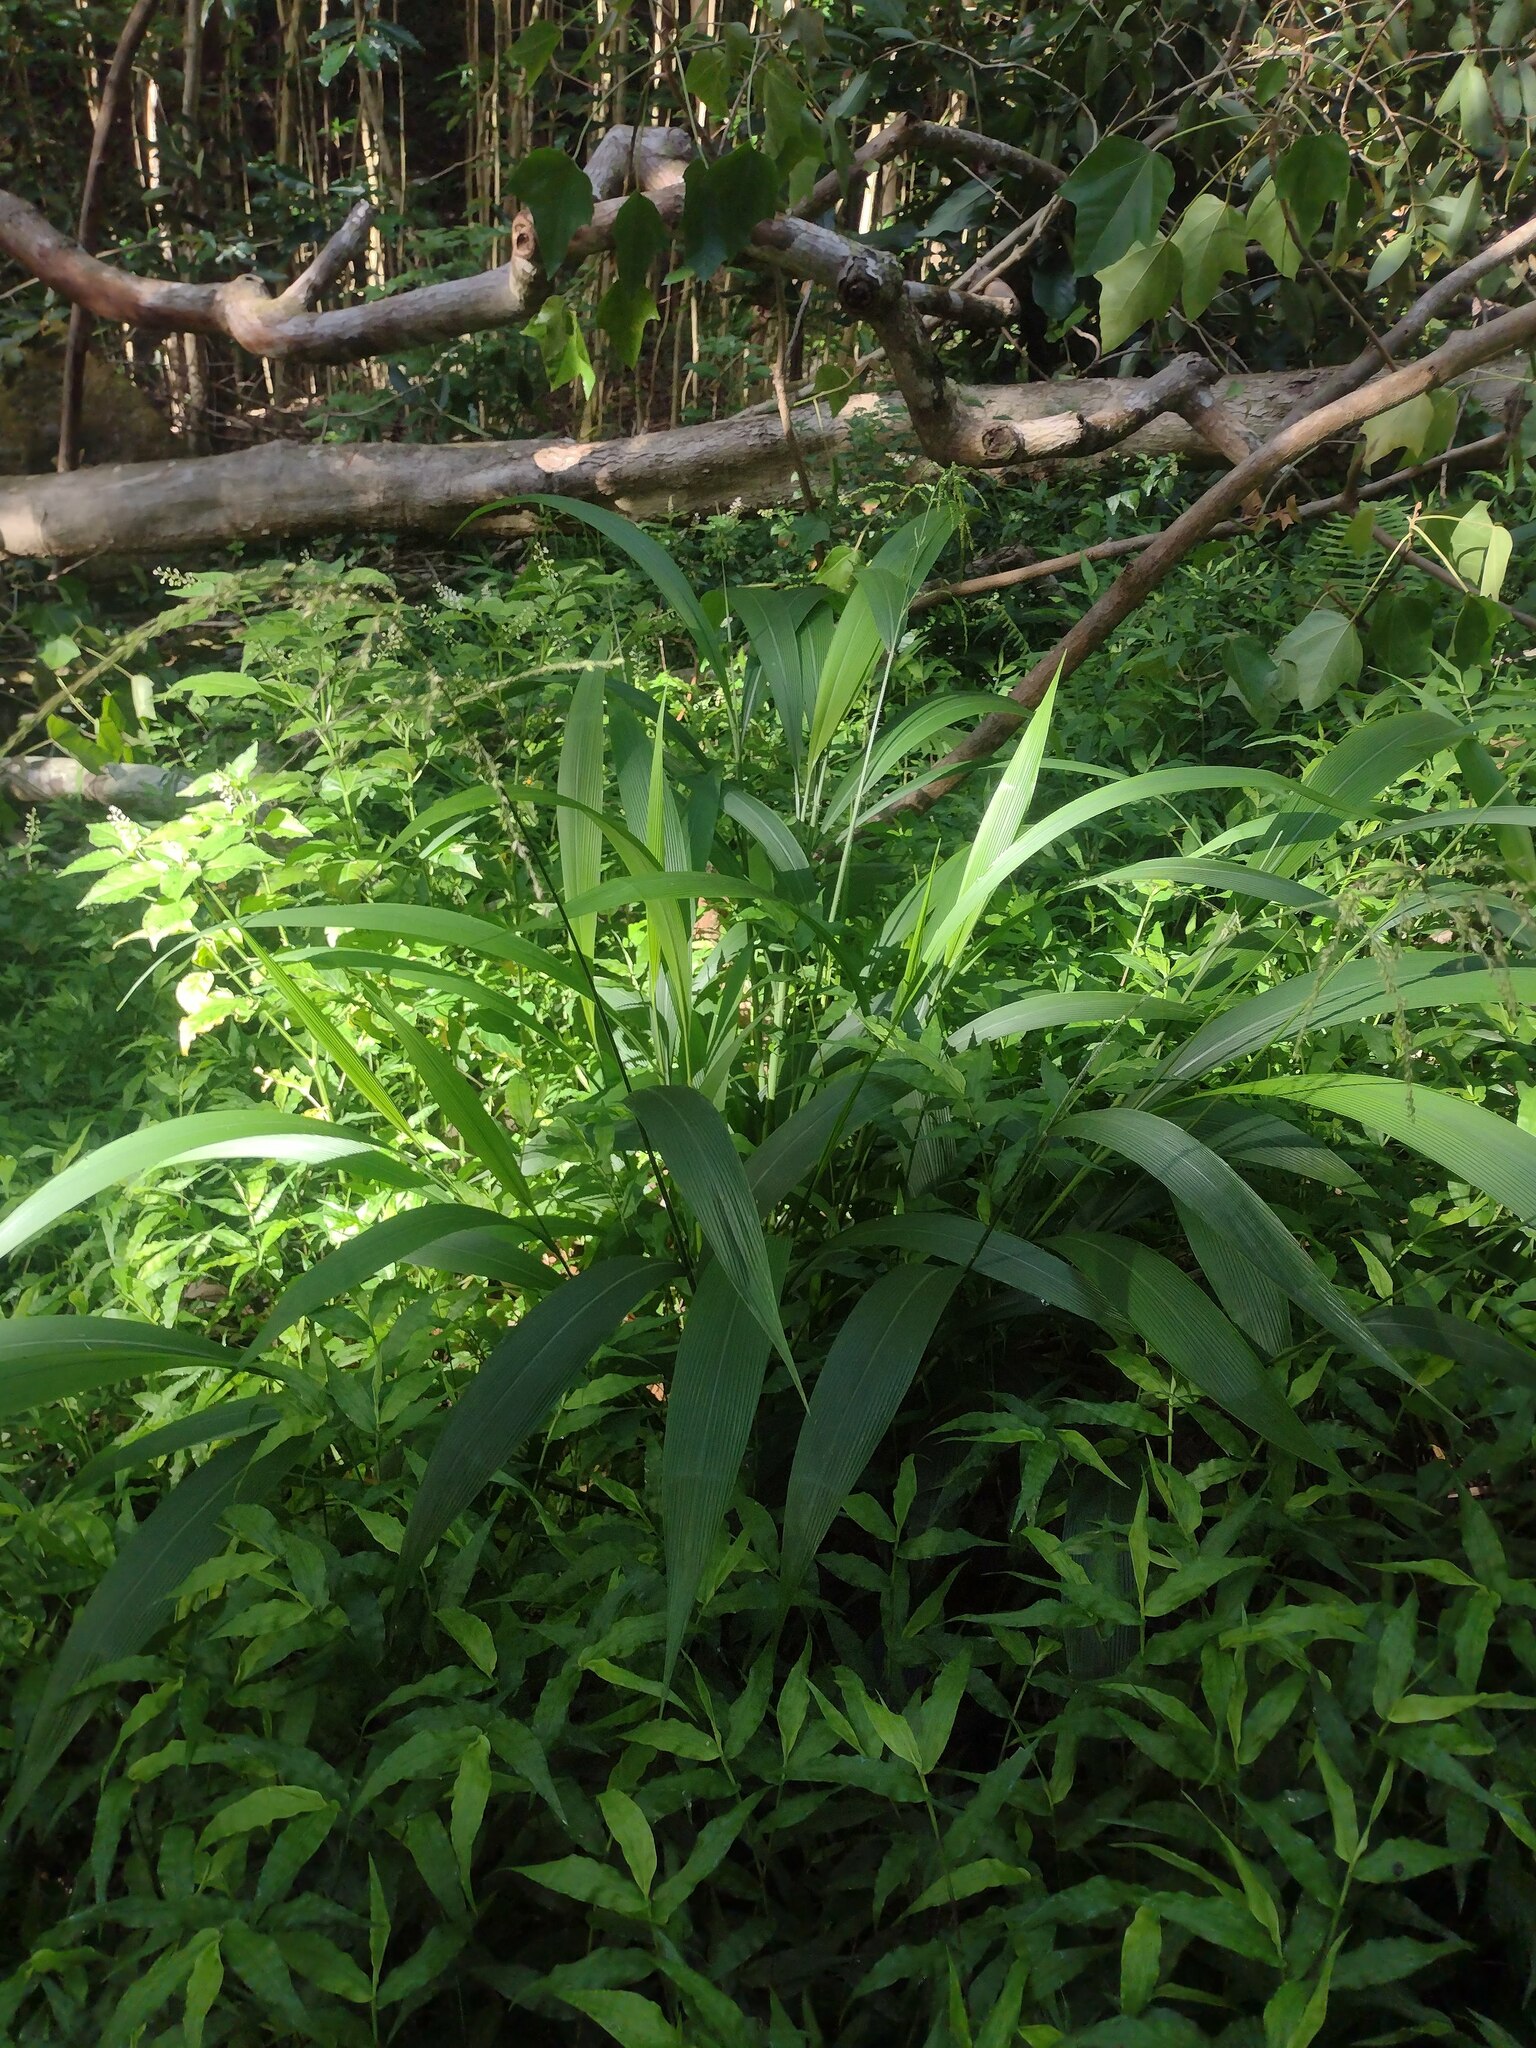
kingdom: Plantae
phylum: Tracheophyta
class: Liliopsida
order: Poales
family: Poaceae
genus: Setaria
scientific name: Setaria palmifolia
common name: Broadleaved bristlegrass
